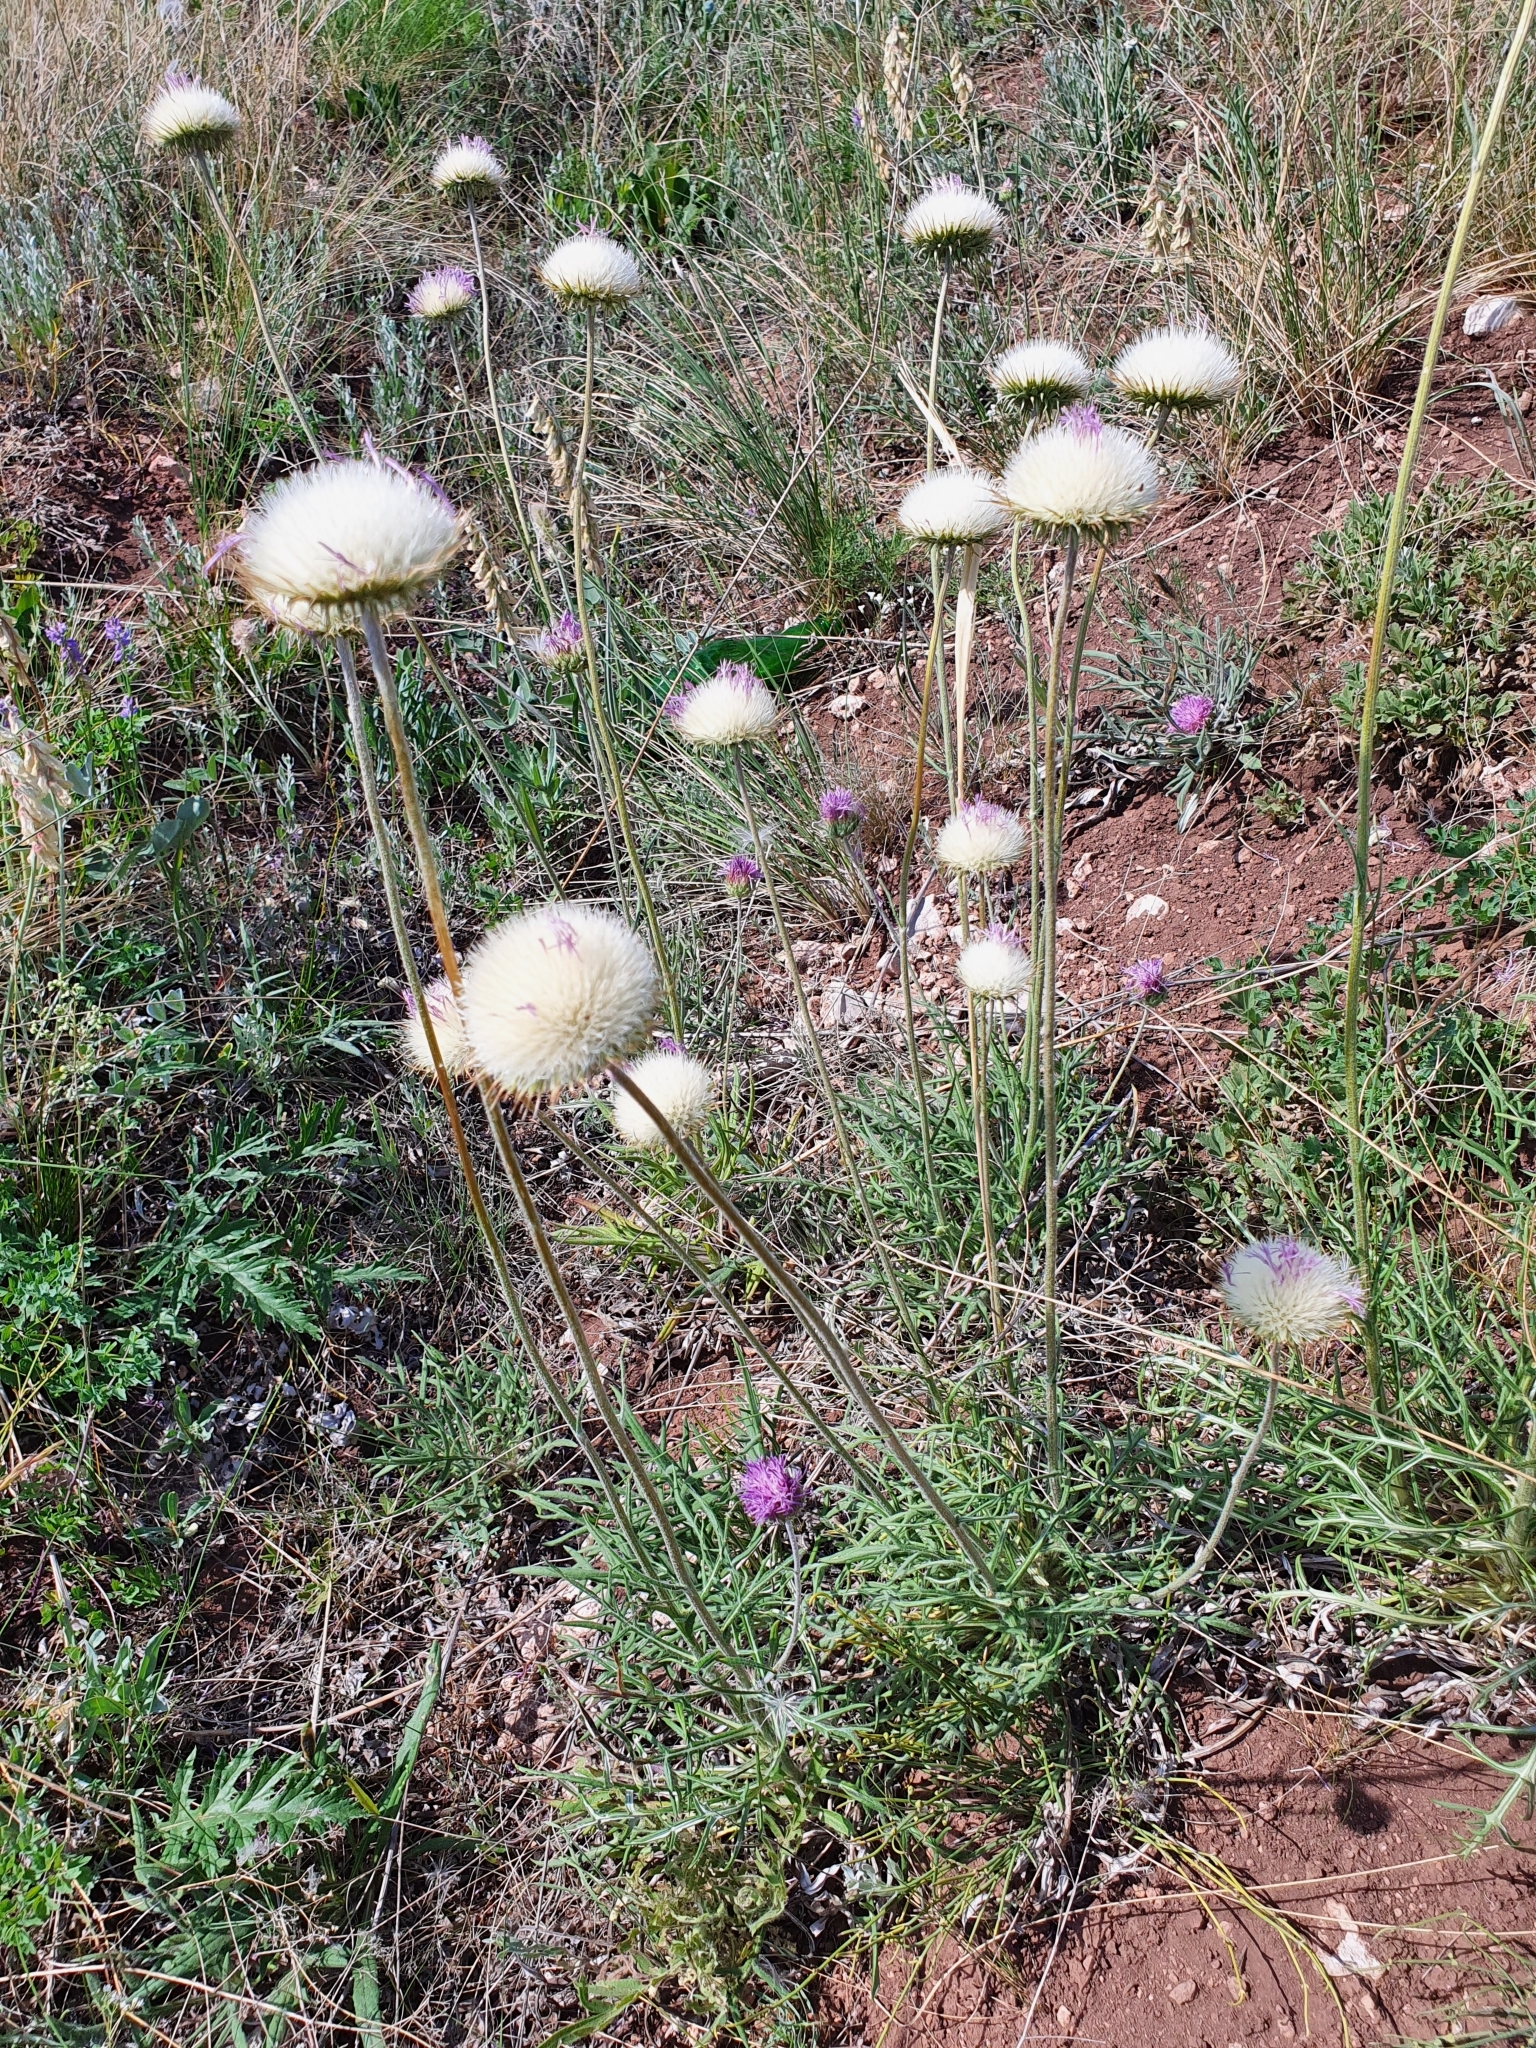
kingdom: Plantae
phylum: Tracheophyta
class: Magnoliopsida
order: Asterales
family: Asteraceae
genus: Jurinea
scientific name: Jurinea ledebourii
